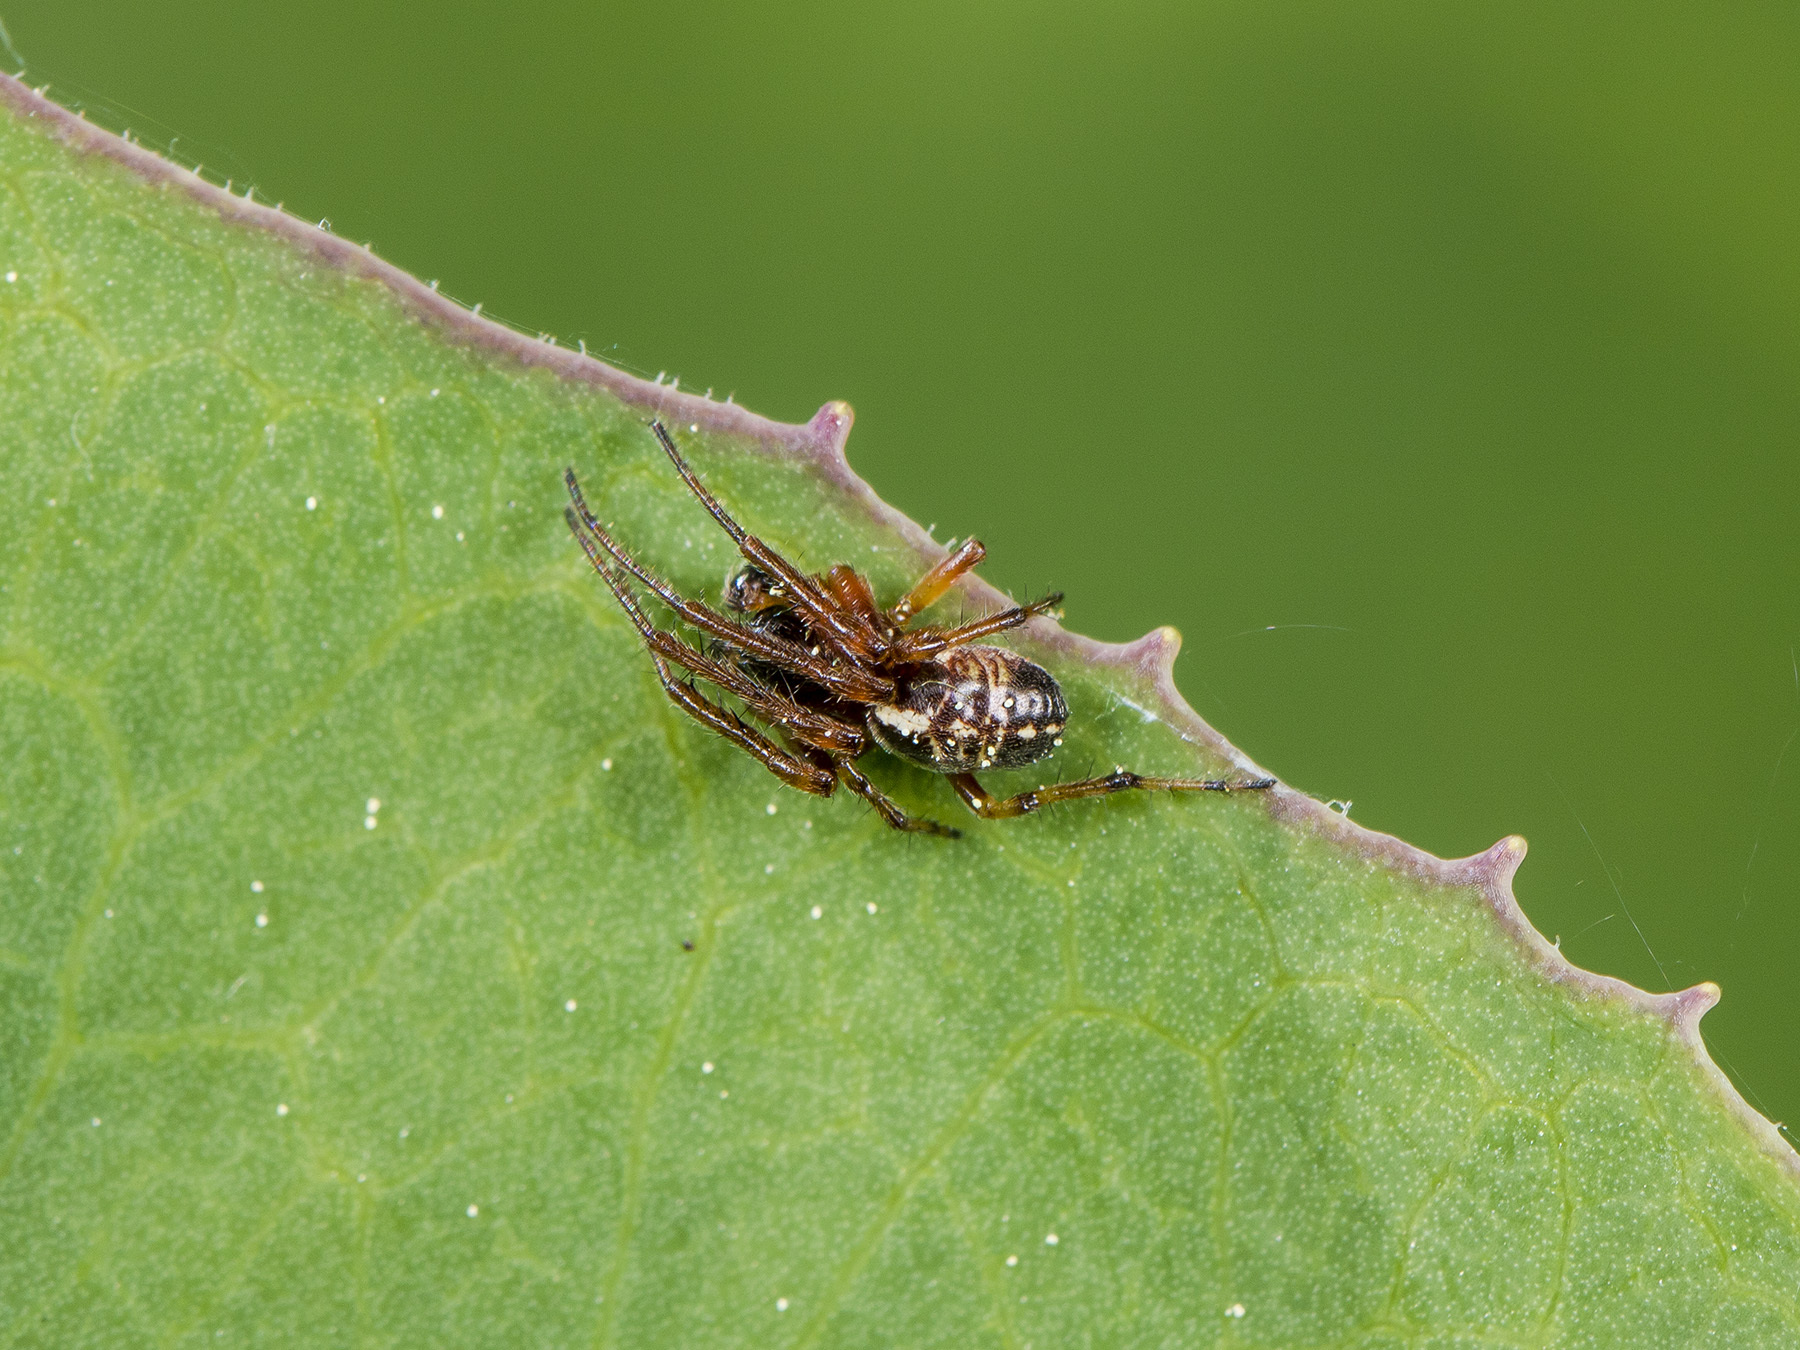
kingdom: Animalia
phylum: Arthropoda
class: Arachnida
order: Araneae
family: Araneidae
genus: Singa
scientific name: Singa hamata
